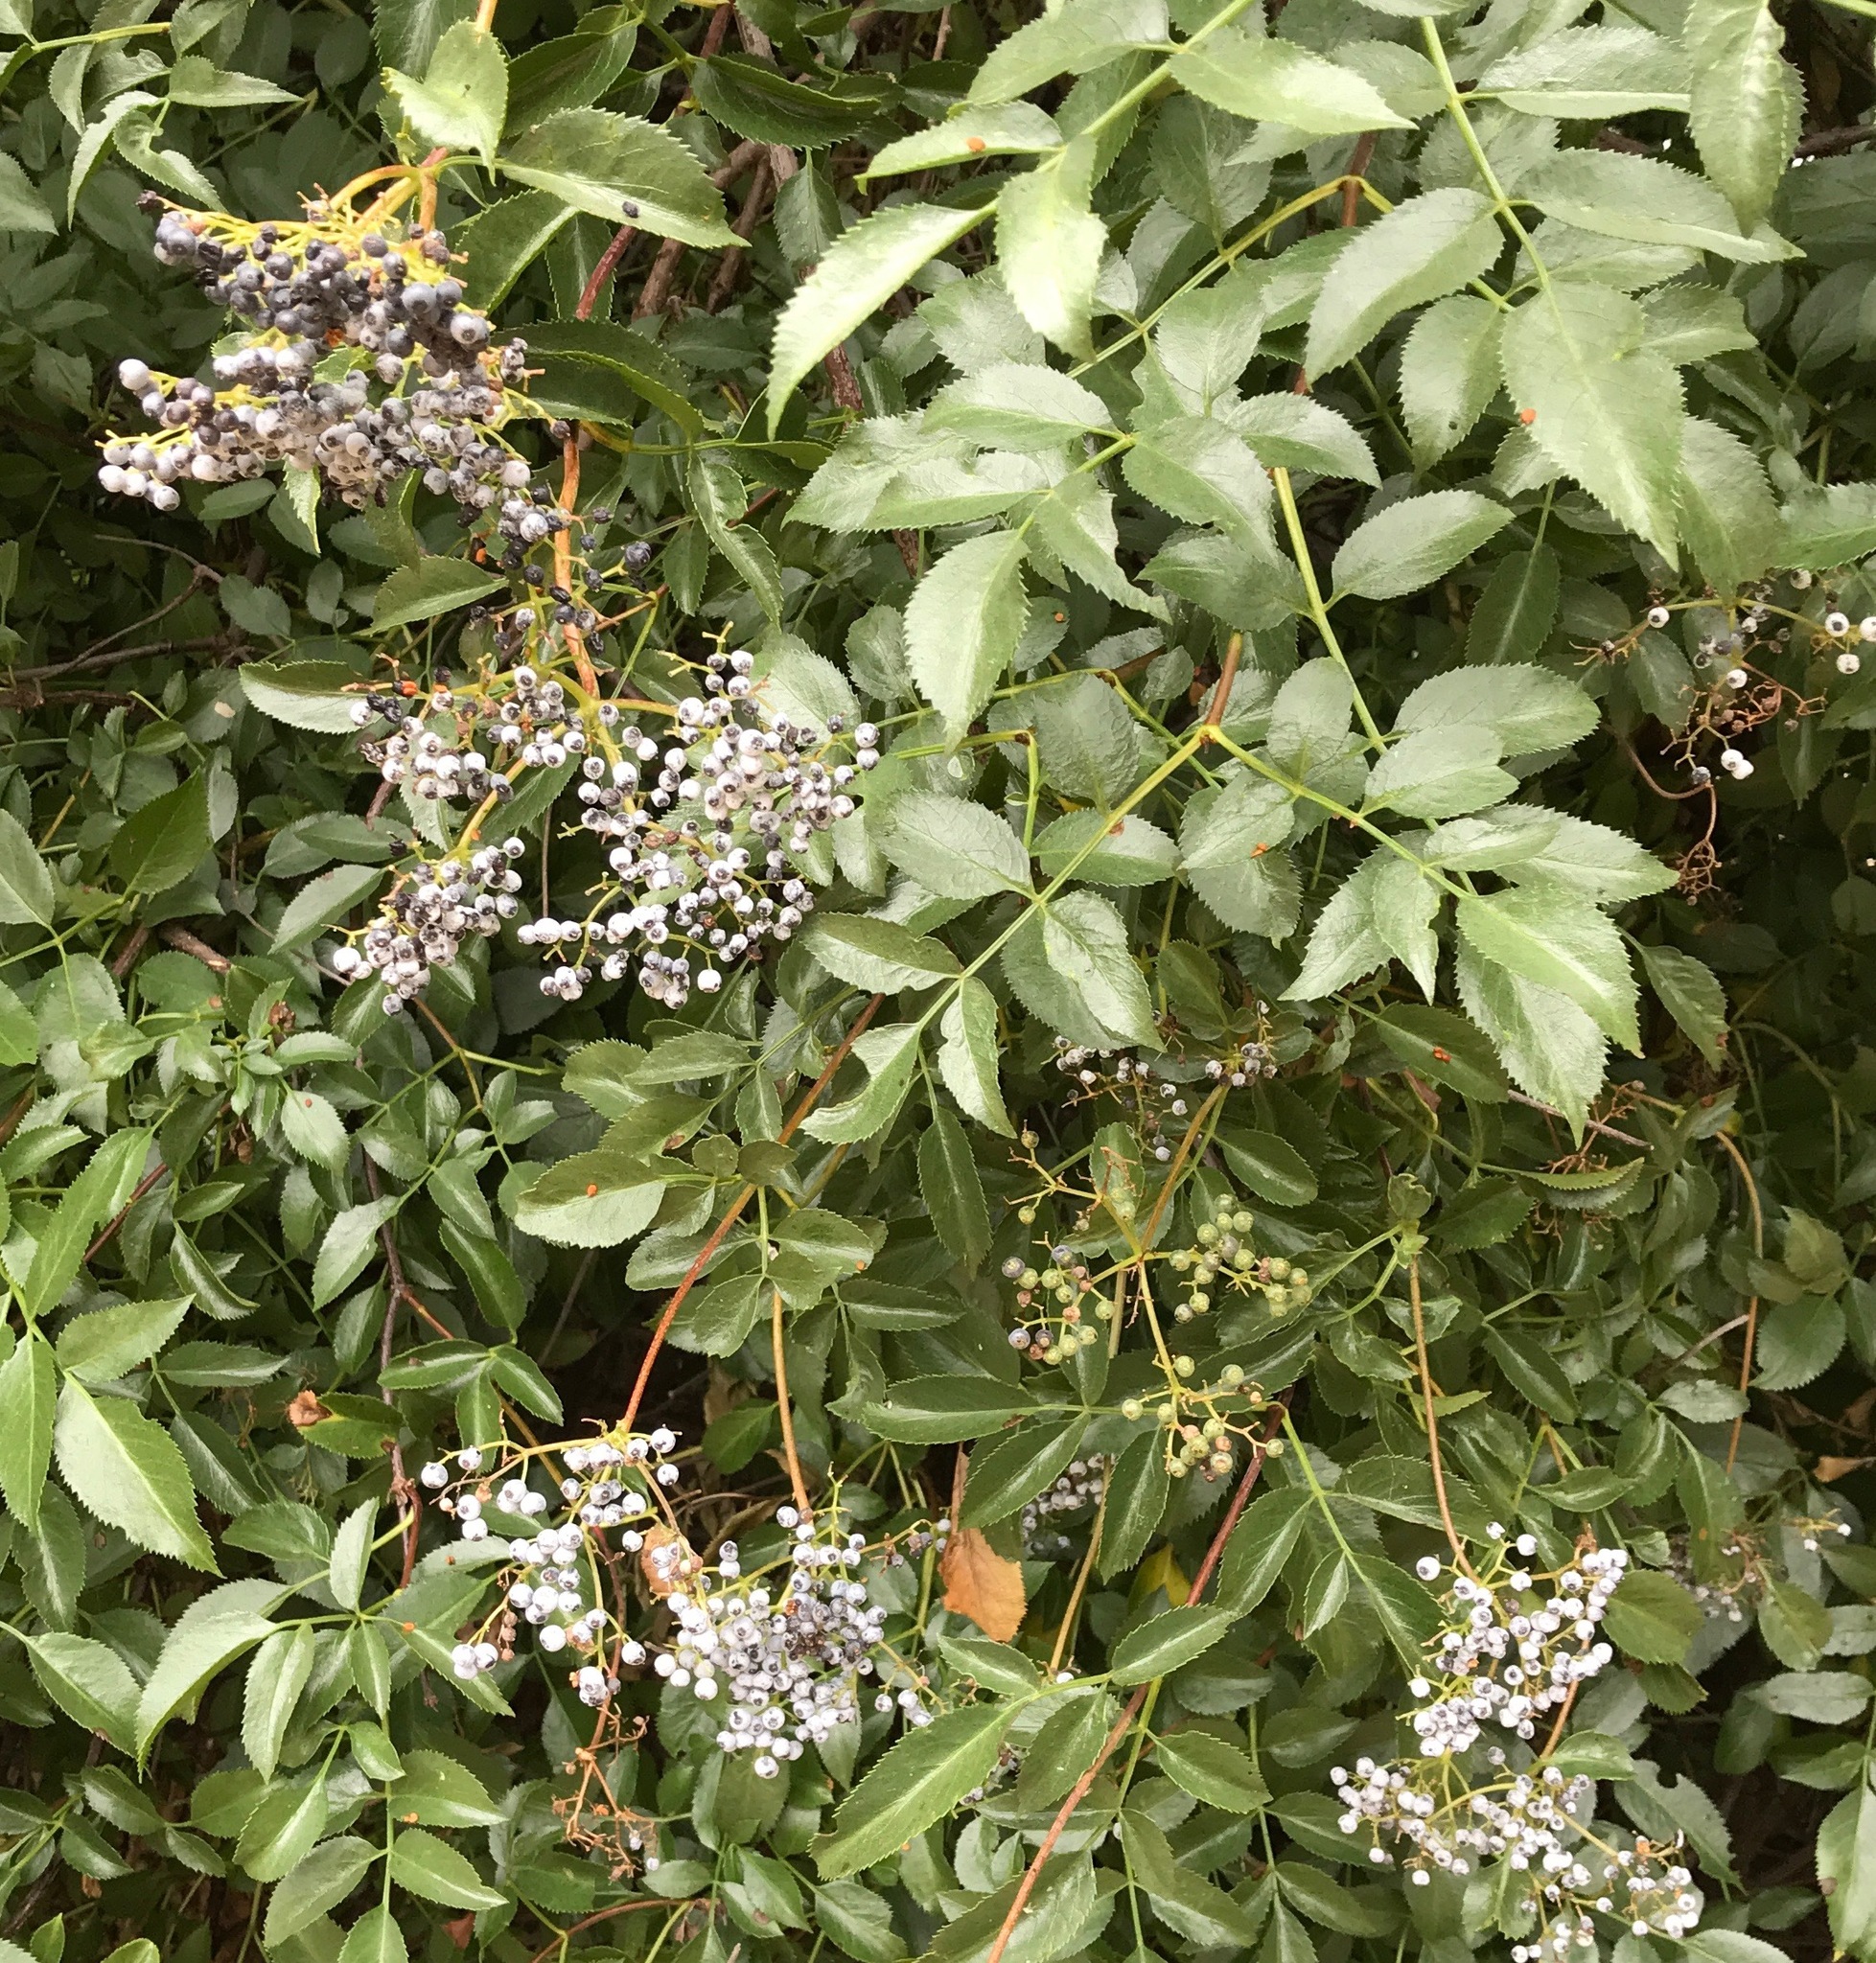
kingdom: Plantae
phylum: Tracheophyta
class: Magnoliopsida
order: Dipsacales
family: Viburnaceae
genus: Sambucus
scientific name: Sambucus cerulea
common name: Blue elder
